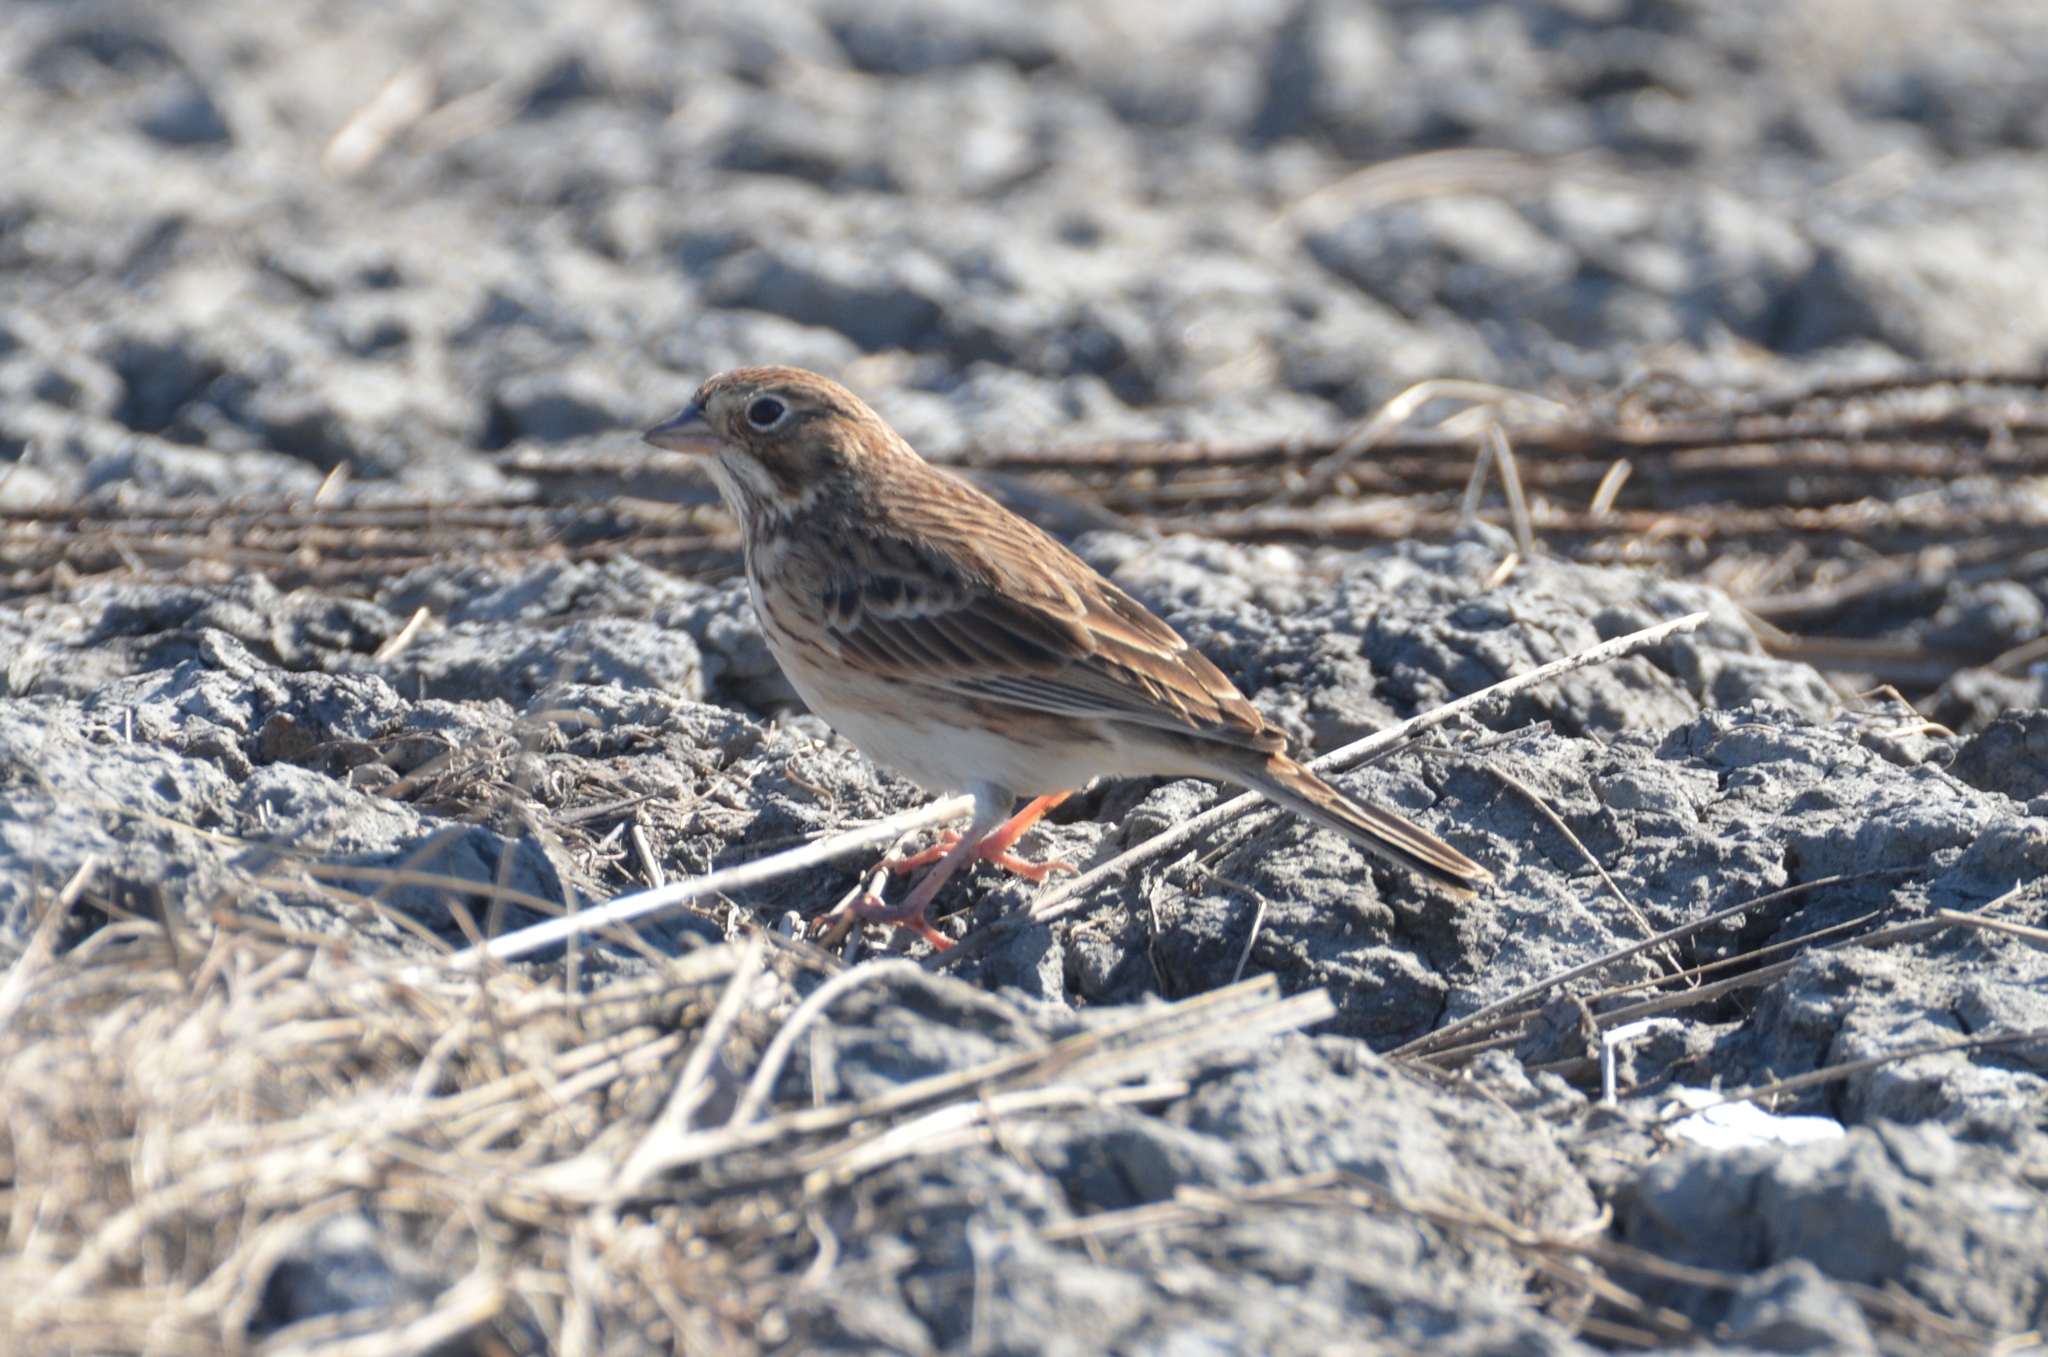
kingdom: Animalia
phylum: Chordata
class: Aves
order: Passeriformes
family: Passerellidae
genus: Pooecetes
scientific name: Pooecetes gramineus
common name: Vesper sparrow
